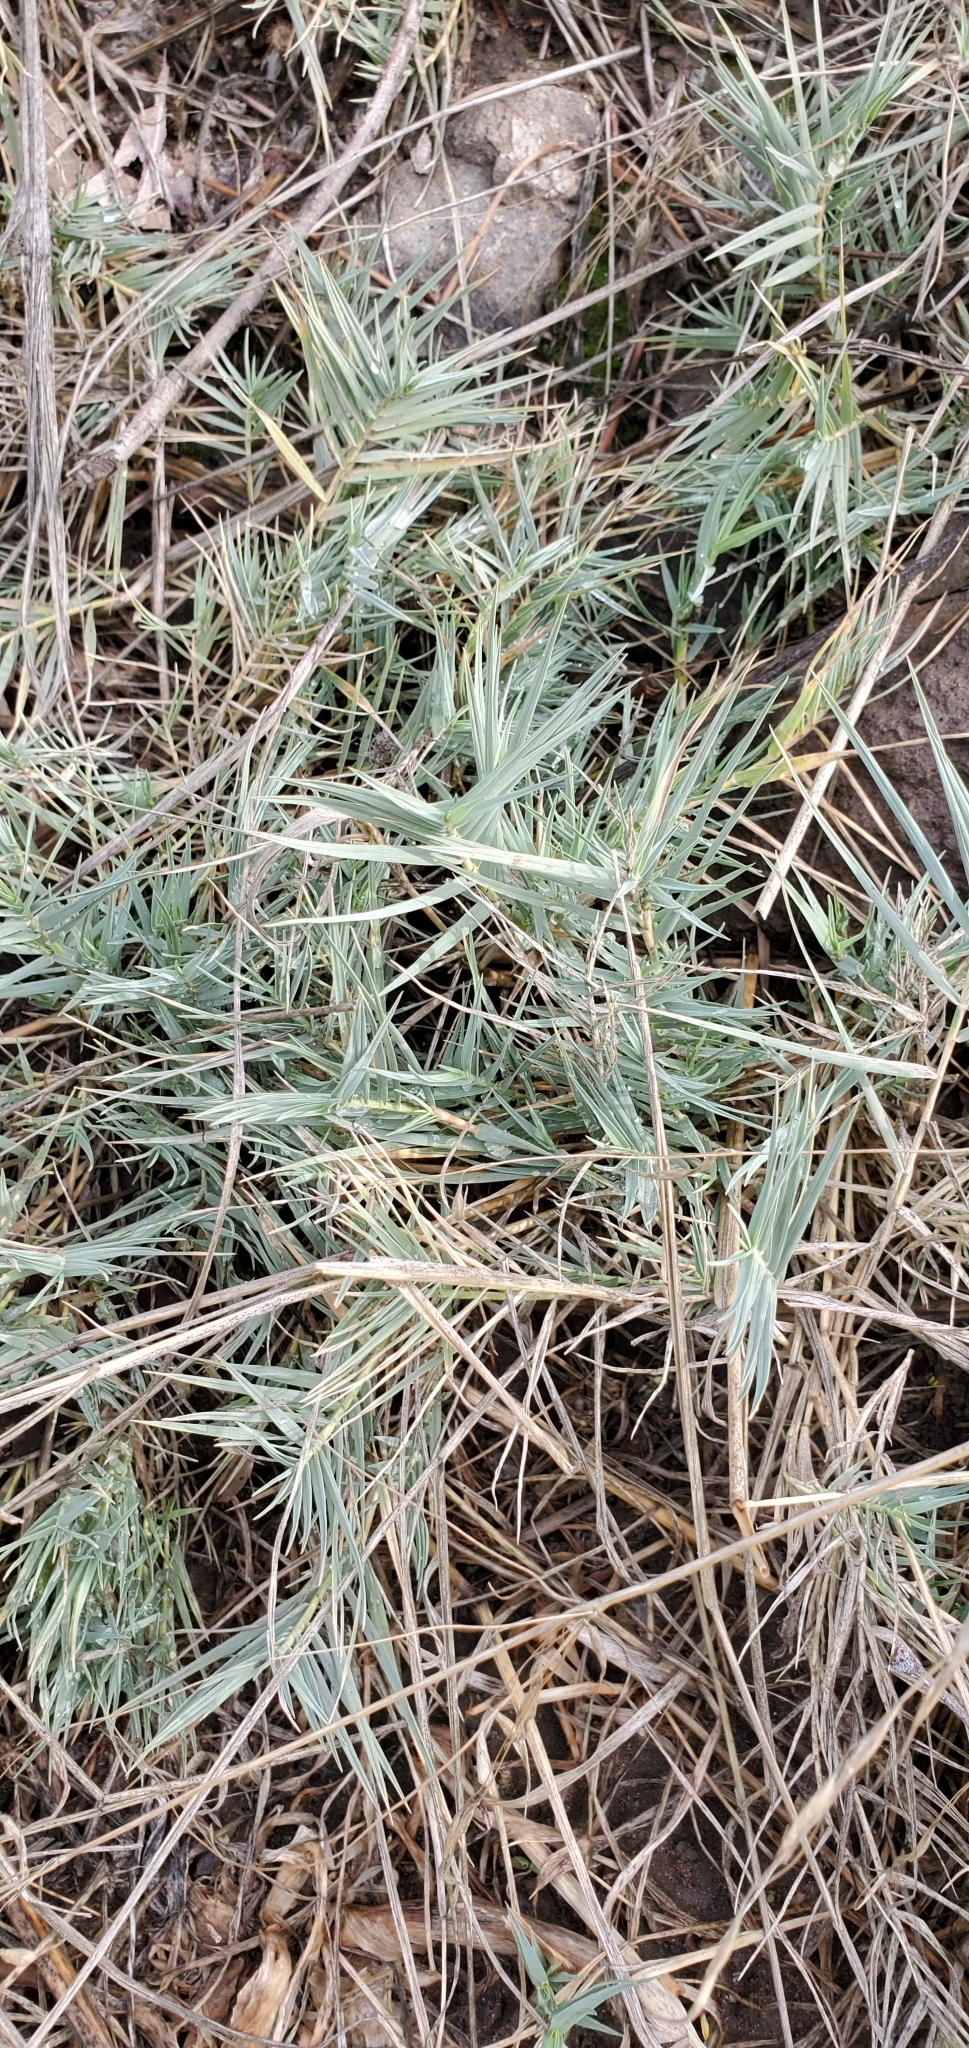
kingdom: Plantae
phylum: Tracheophyta
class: Liliopsida
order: Poales
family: Poaceae
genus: Distichlis
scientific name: Distichlis spicata
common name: Saltgrass
